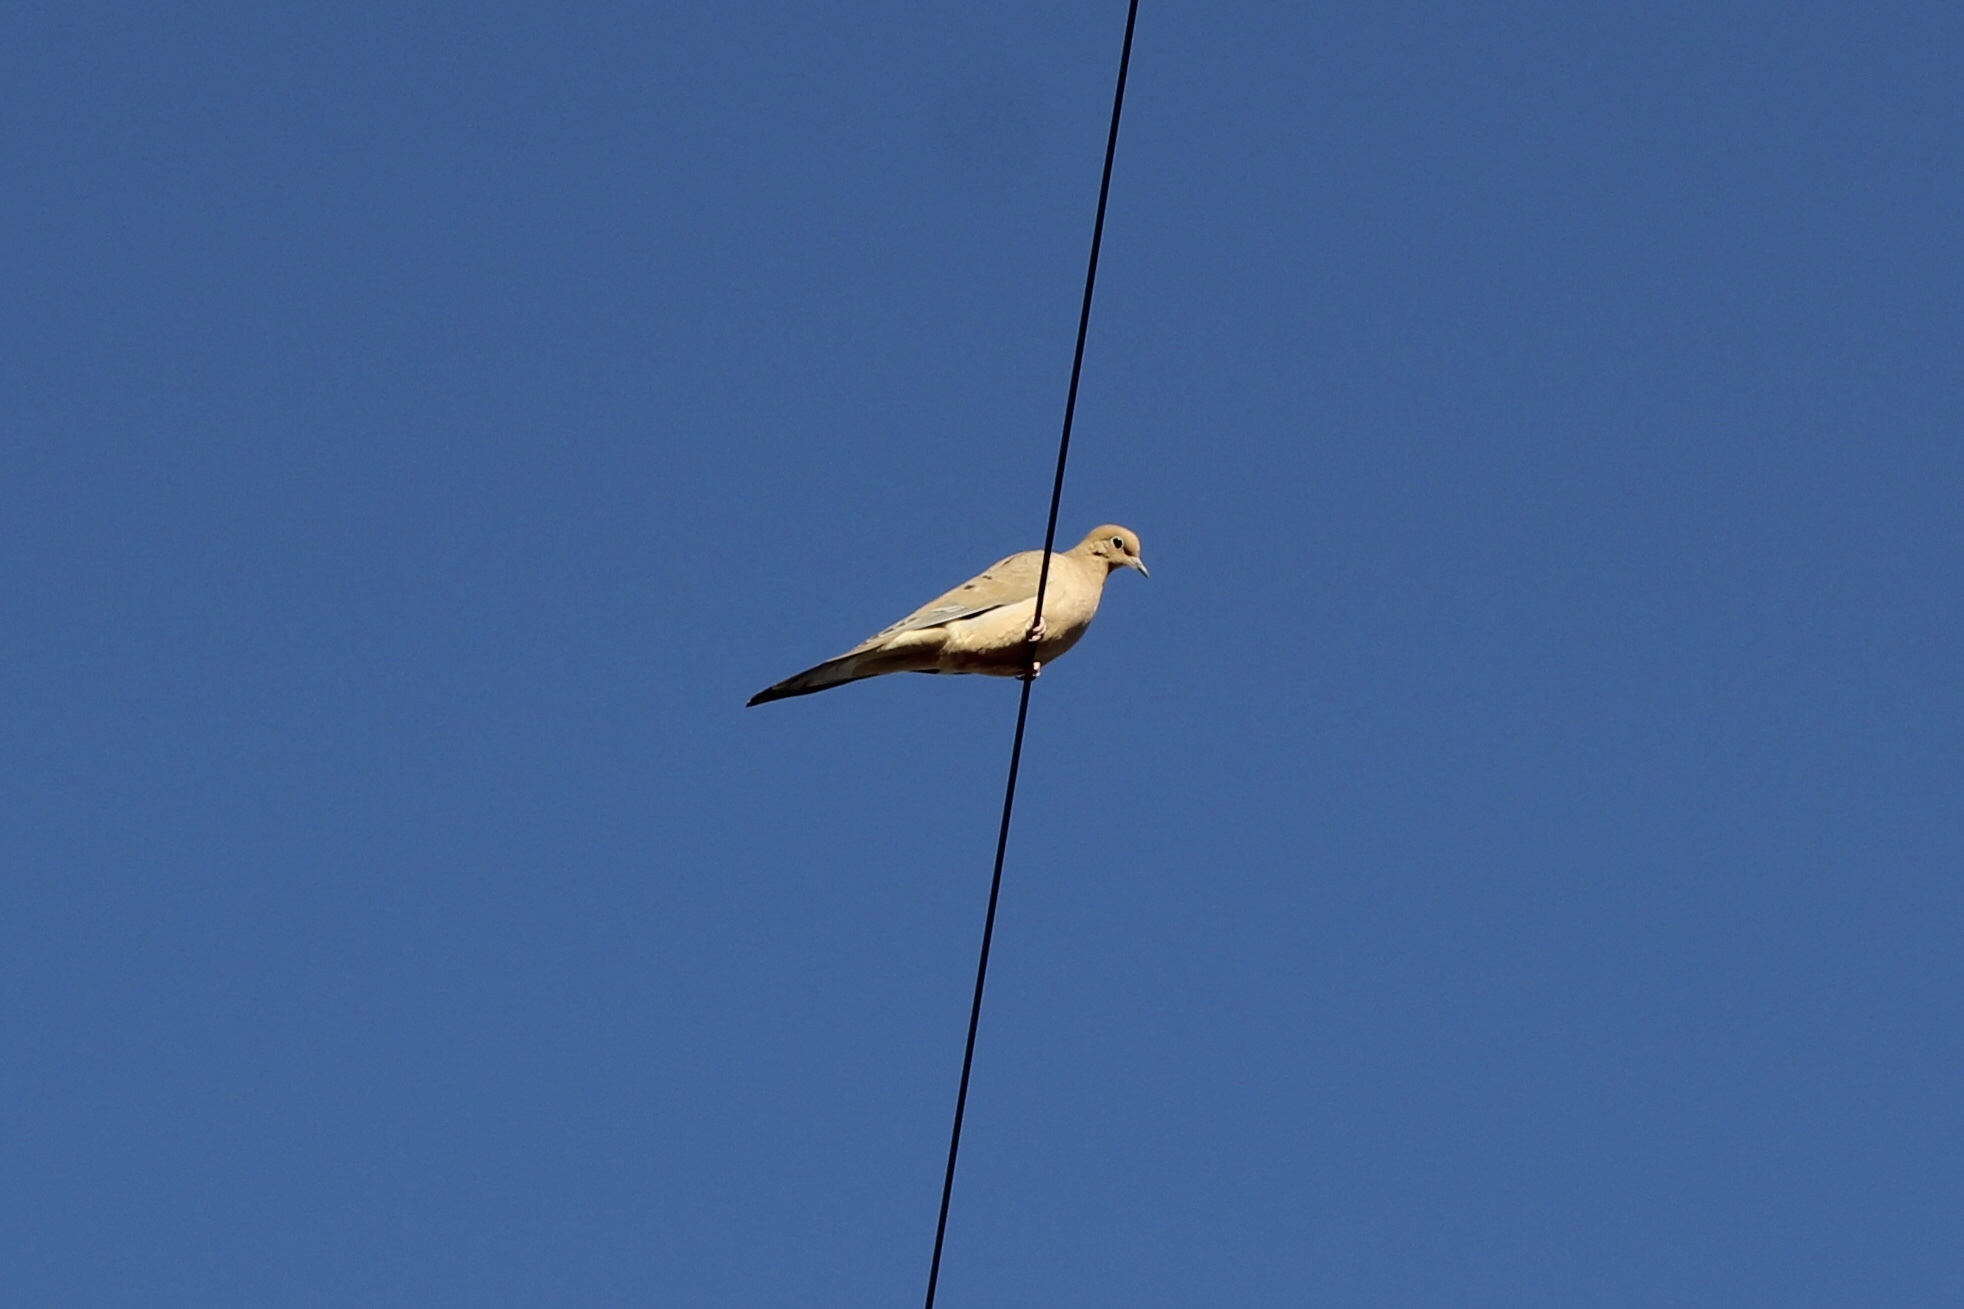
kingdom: Animalia
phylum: Chordata
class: Aves
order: Columbiformes
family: Columbidae
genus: Zenaida
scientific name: Zenaida macroura
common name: Mourning dove
